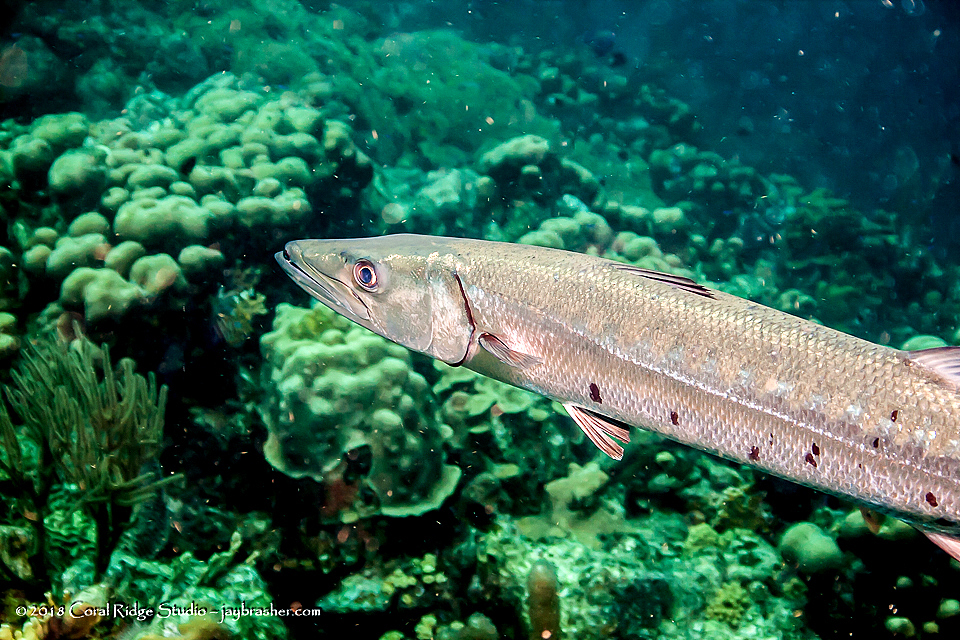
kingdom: Animalia
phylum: Chordata
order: Perciformes
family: Sphyraenidae
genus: Sphyraena
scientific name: Sphyraena barracuda
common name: Great barracuda
